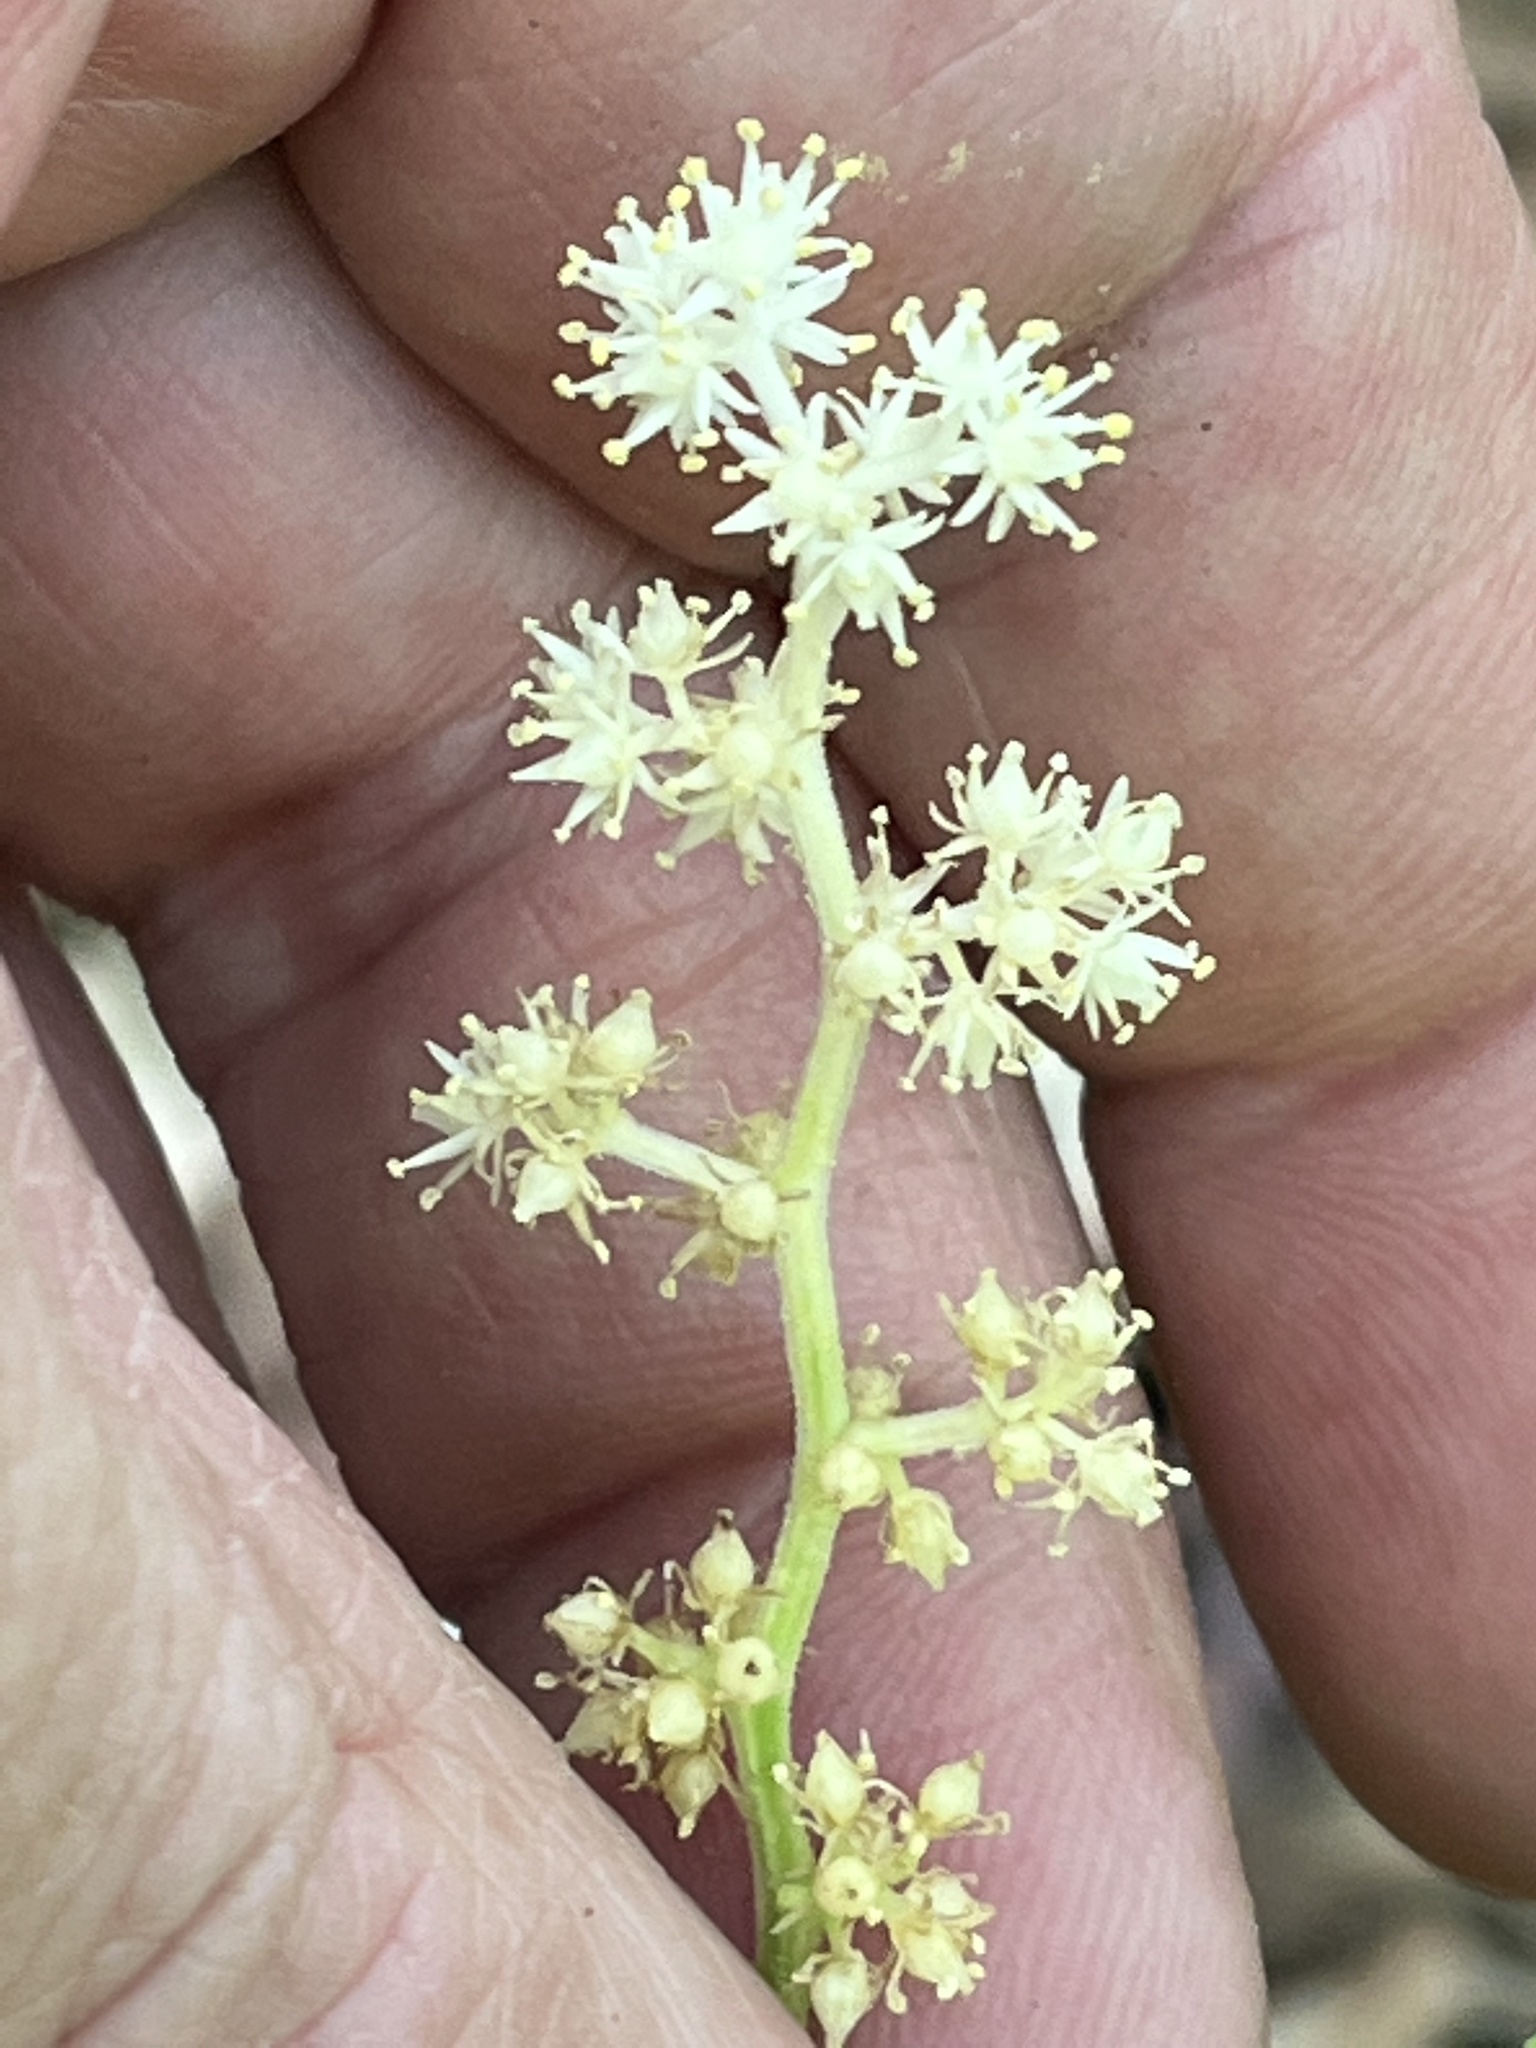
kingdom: Plantae
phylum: Tracheophyta
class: Liliopsida
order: Asparagales
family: Asparagaceae
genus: Maianthemum
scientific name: Maianthemum racemosum
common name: False spikenard
